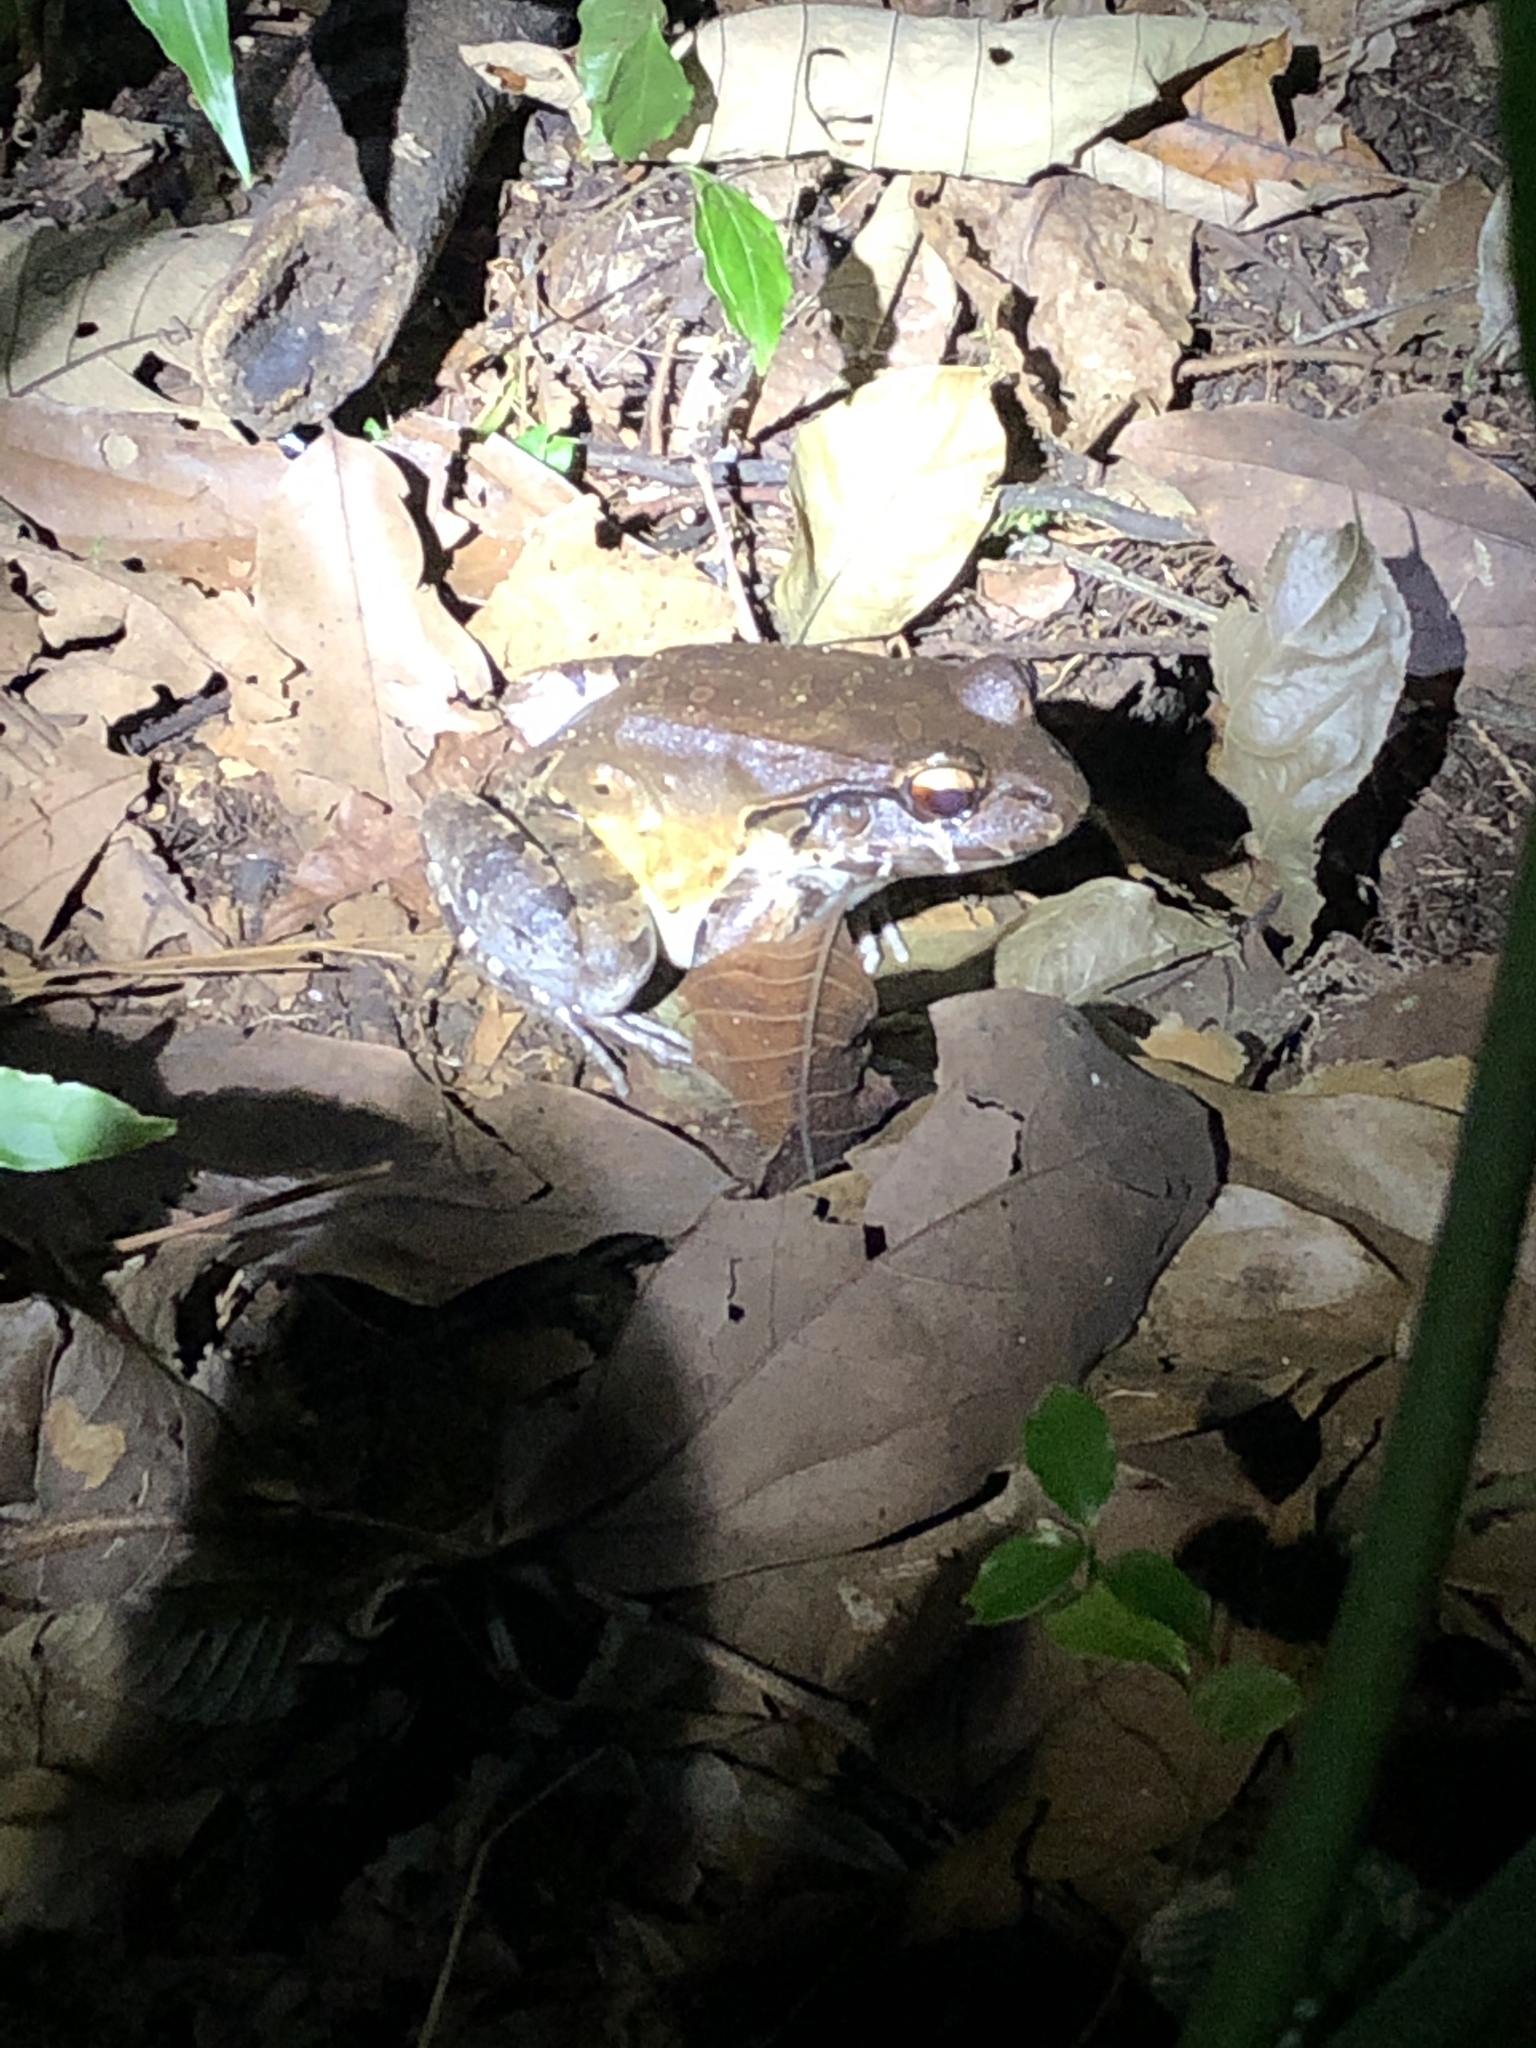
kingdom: Animalia
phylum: Chordata
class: Amphibia
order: Anura
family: Leptodactylidae
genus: Leptodactylus
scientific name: Leptodactylus savagei
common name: Savage's thin-toed frog
